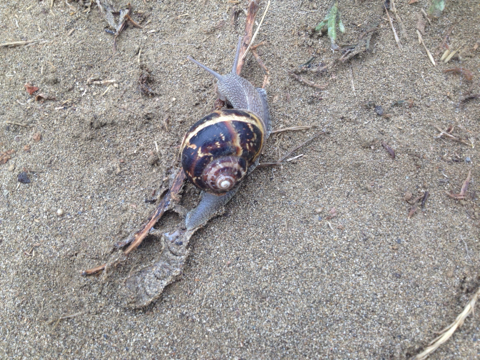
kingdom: Animalia
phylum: Mollusca
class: Gastropoda
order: Stylommatophora
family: Helicidae
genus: Cornu
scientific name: Cornu aspersum
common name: Brown garden snail
